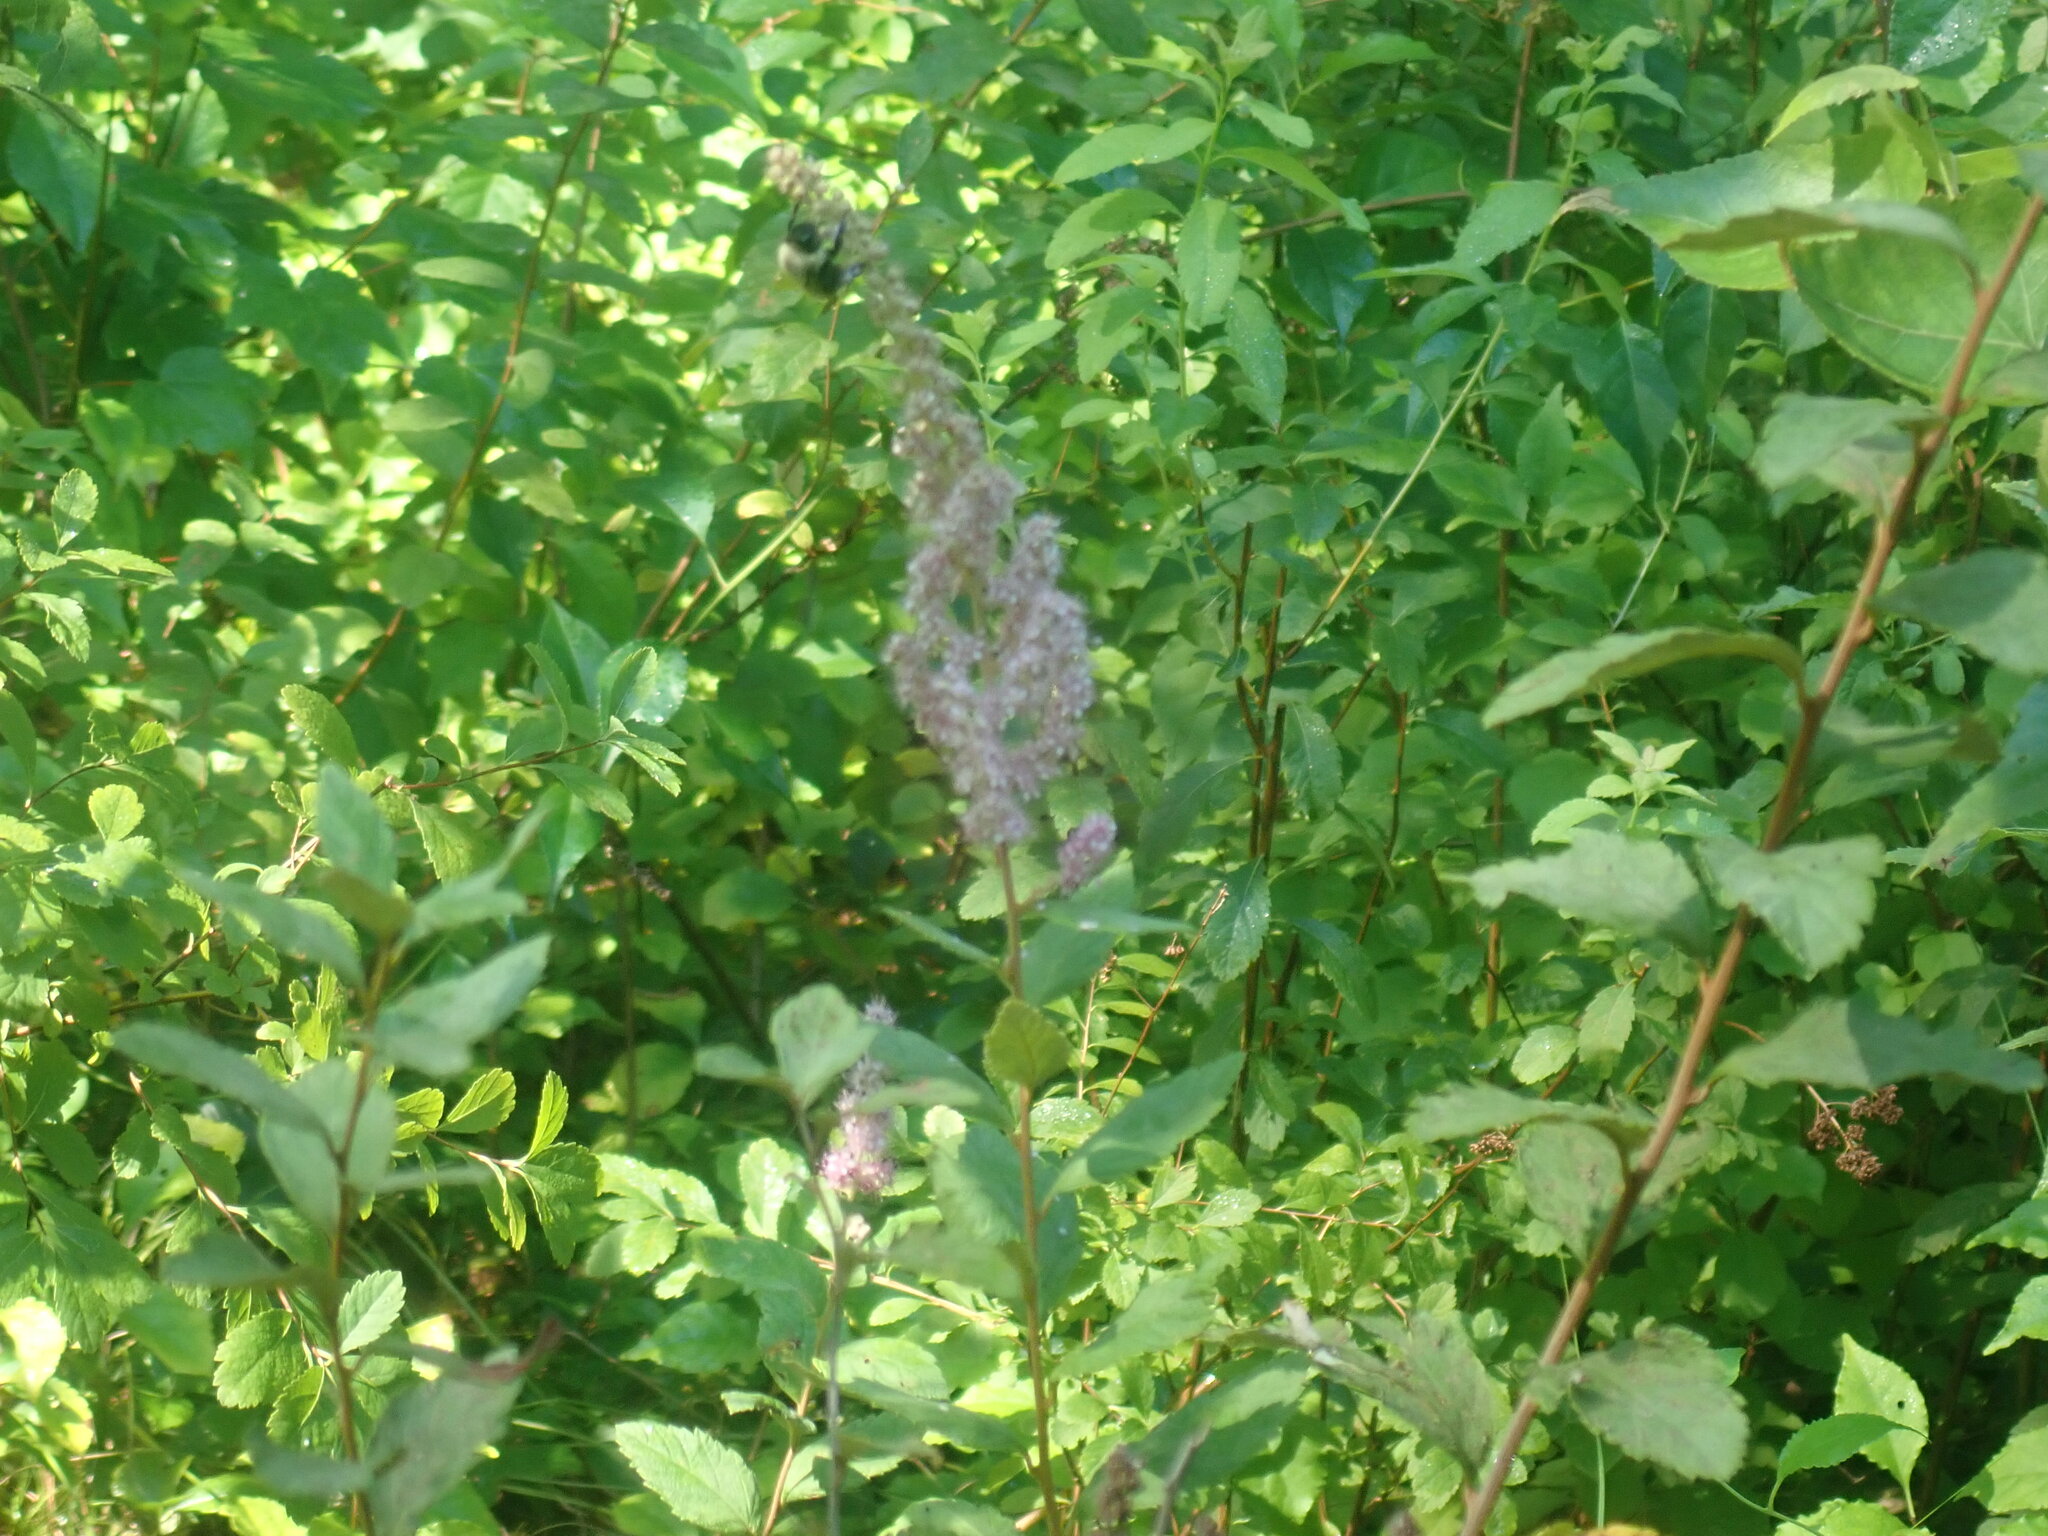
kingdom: Plantae
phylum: Tracheophyta
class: Magnoliopsida
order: Rosales
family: Rosaceae
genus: Spiraea
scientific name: Spiraea tomentosa
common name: Hardhack
